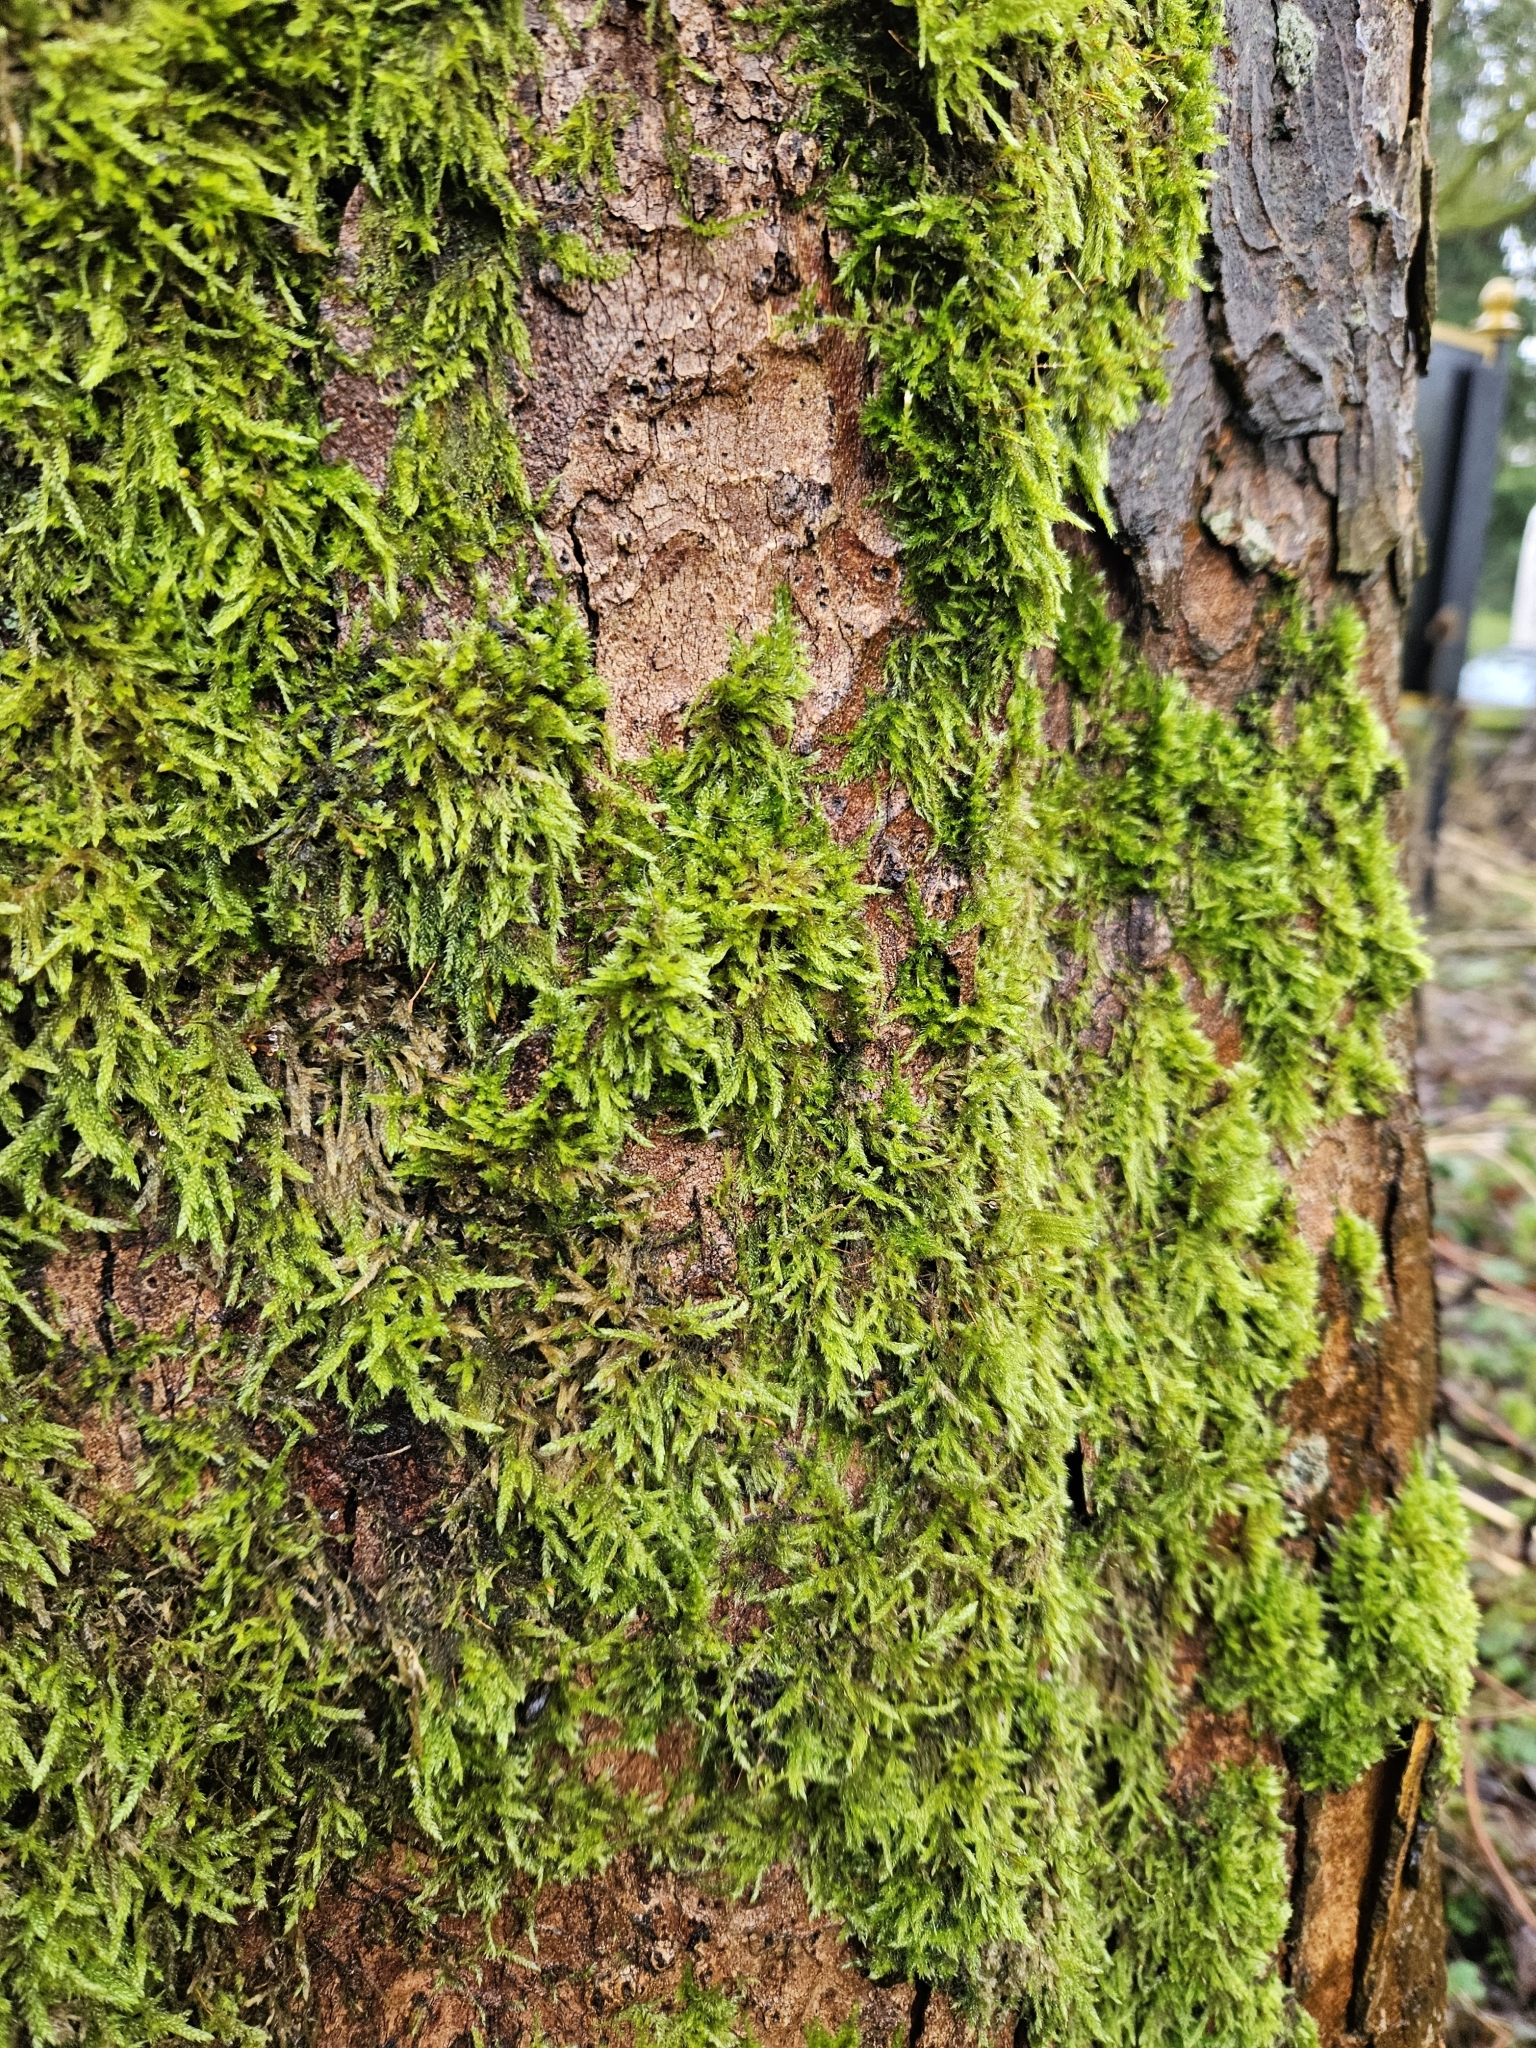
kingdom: Plantae
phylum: Bryophyta
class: Bryopsida
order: Hypnales
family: Hypnaceae
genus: Hypnum
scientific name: Hypnum cupressiforme
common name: Cypress-leaved plait-moss
